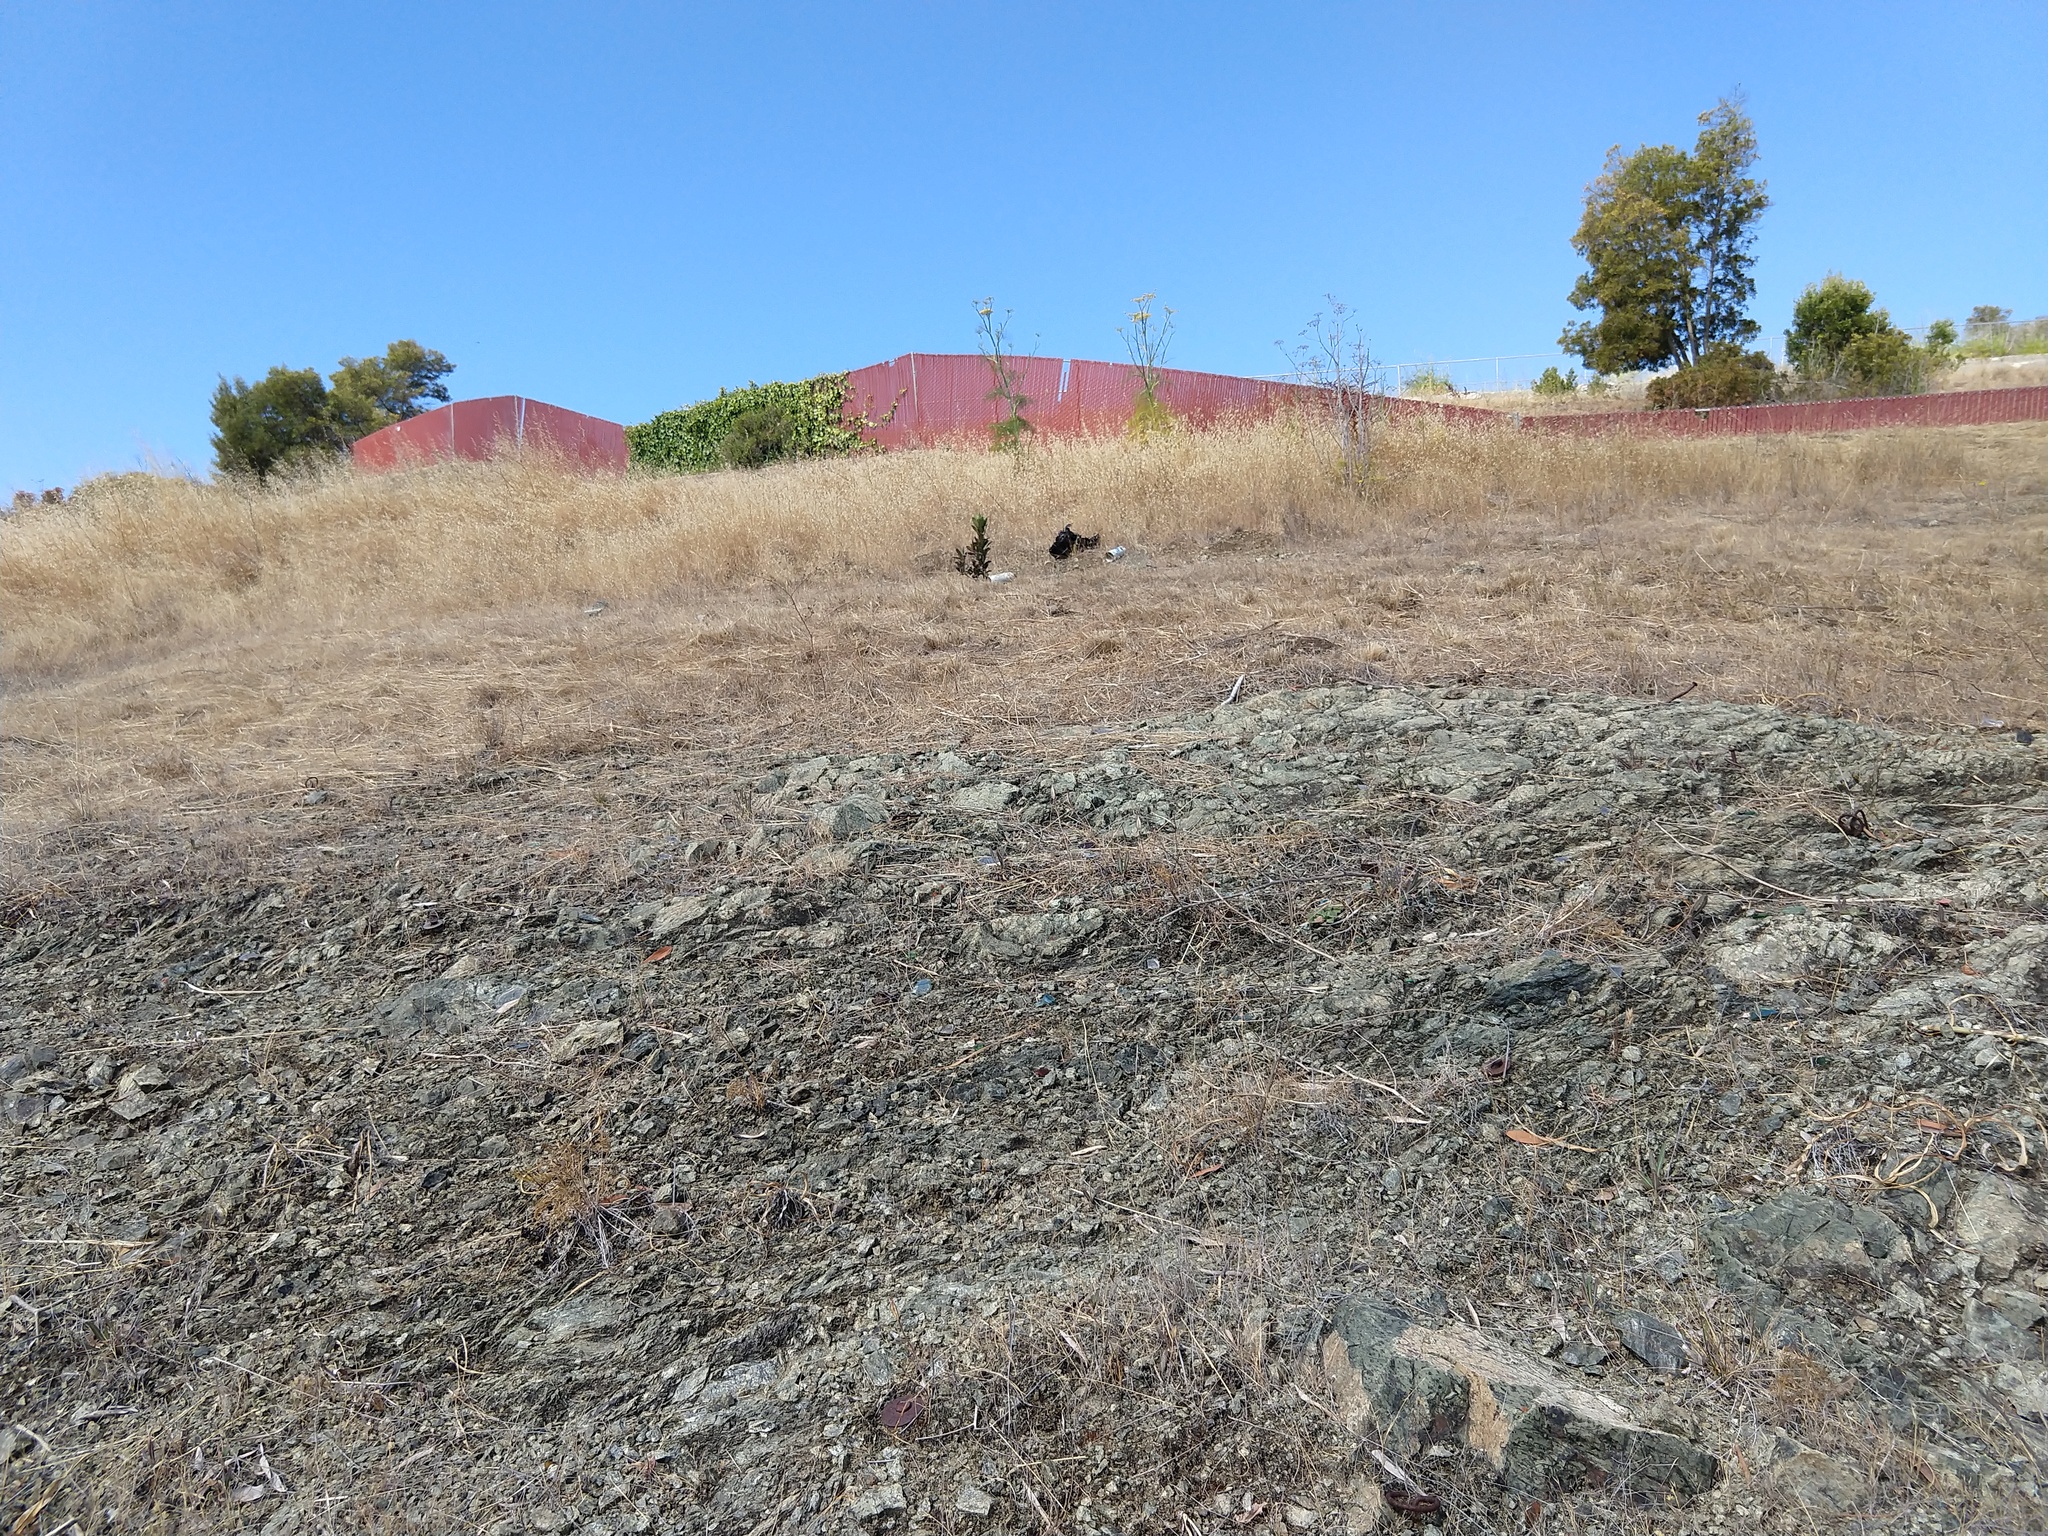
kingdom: Plantae
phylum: Tracheophyta
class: Liliopsida
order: Liliales
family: Liliaceae
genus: Calochortus
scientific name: Calochortus luteus
